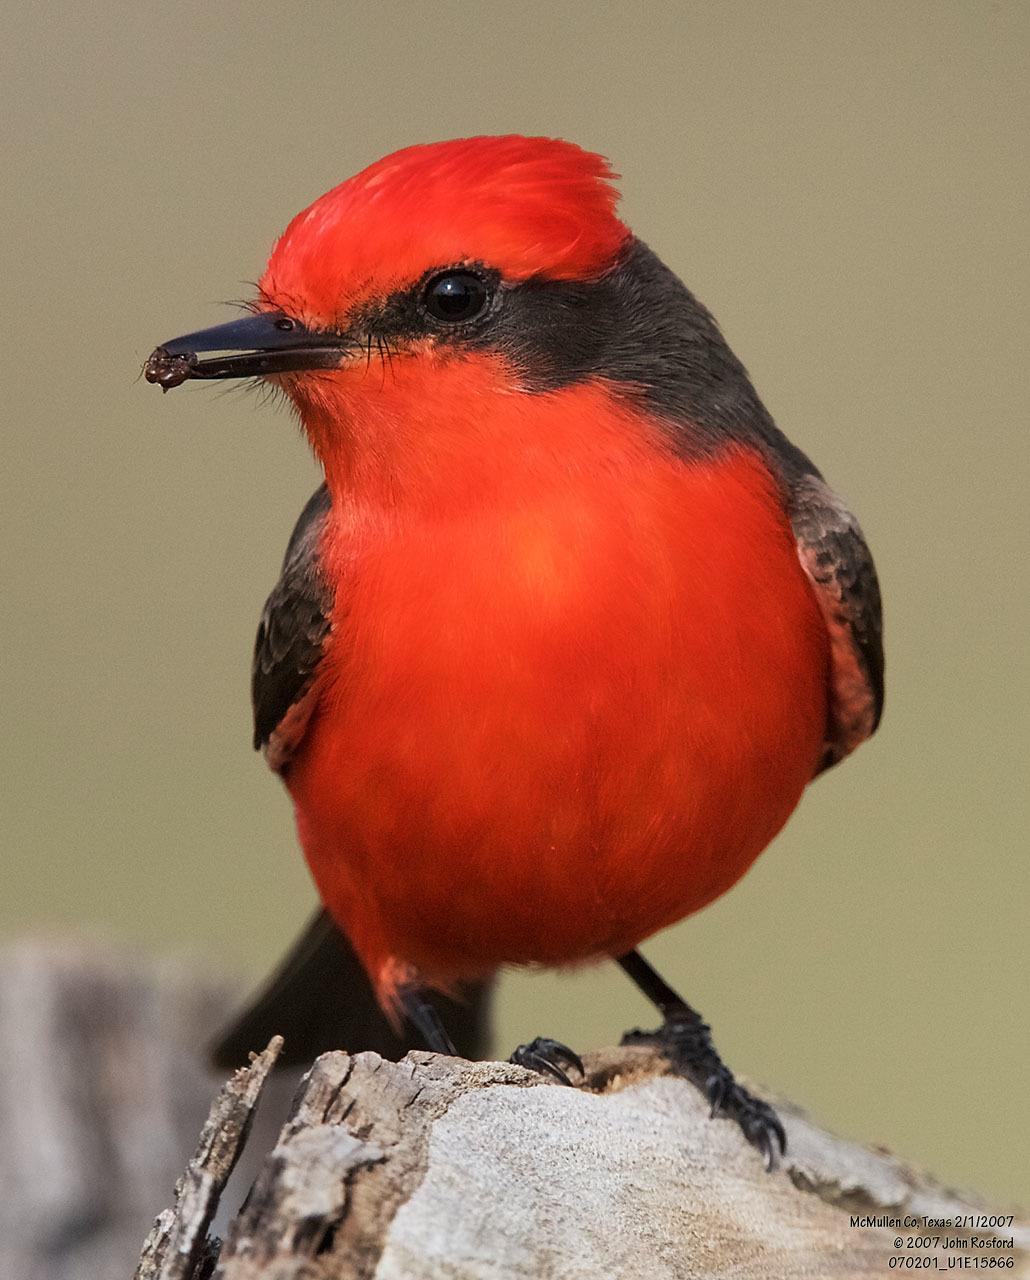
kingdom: Animalia
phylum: Chordata
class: Aves
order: Passeriformes
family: Tyrannidae
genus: Pyrocephalus
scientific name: Pyrocephalus rubinus
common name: Vermilion flycatcher
